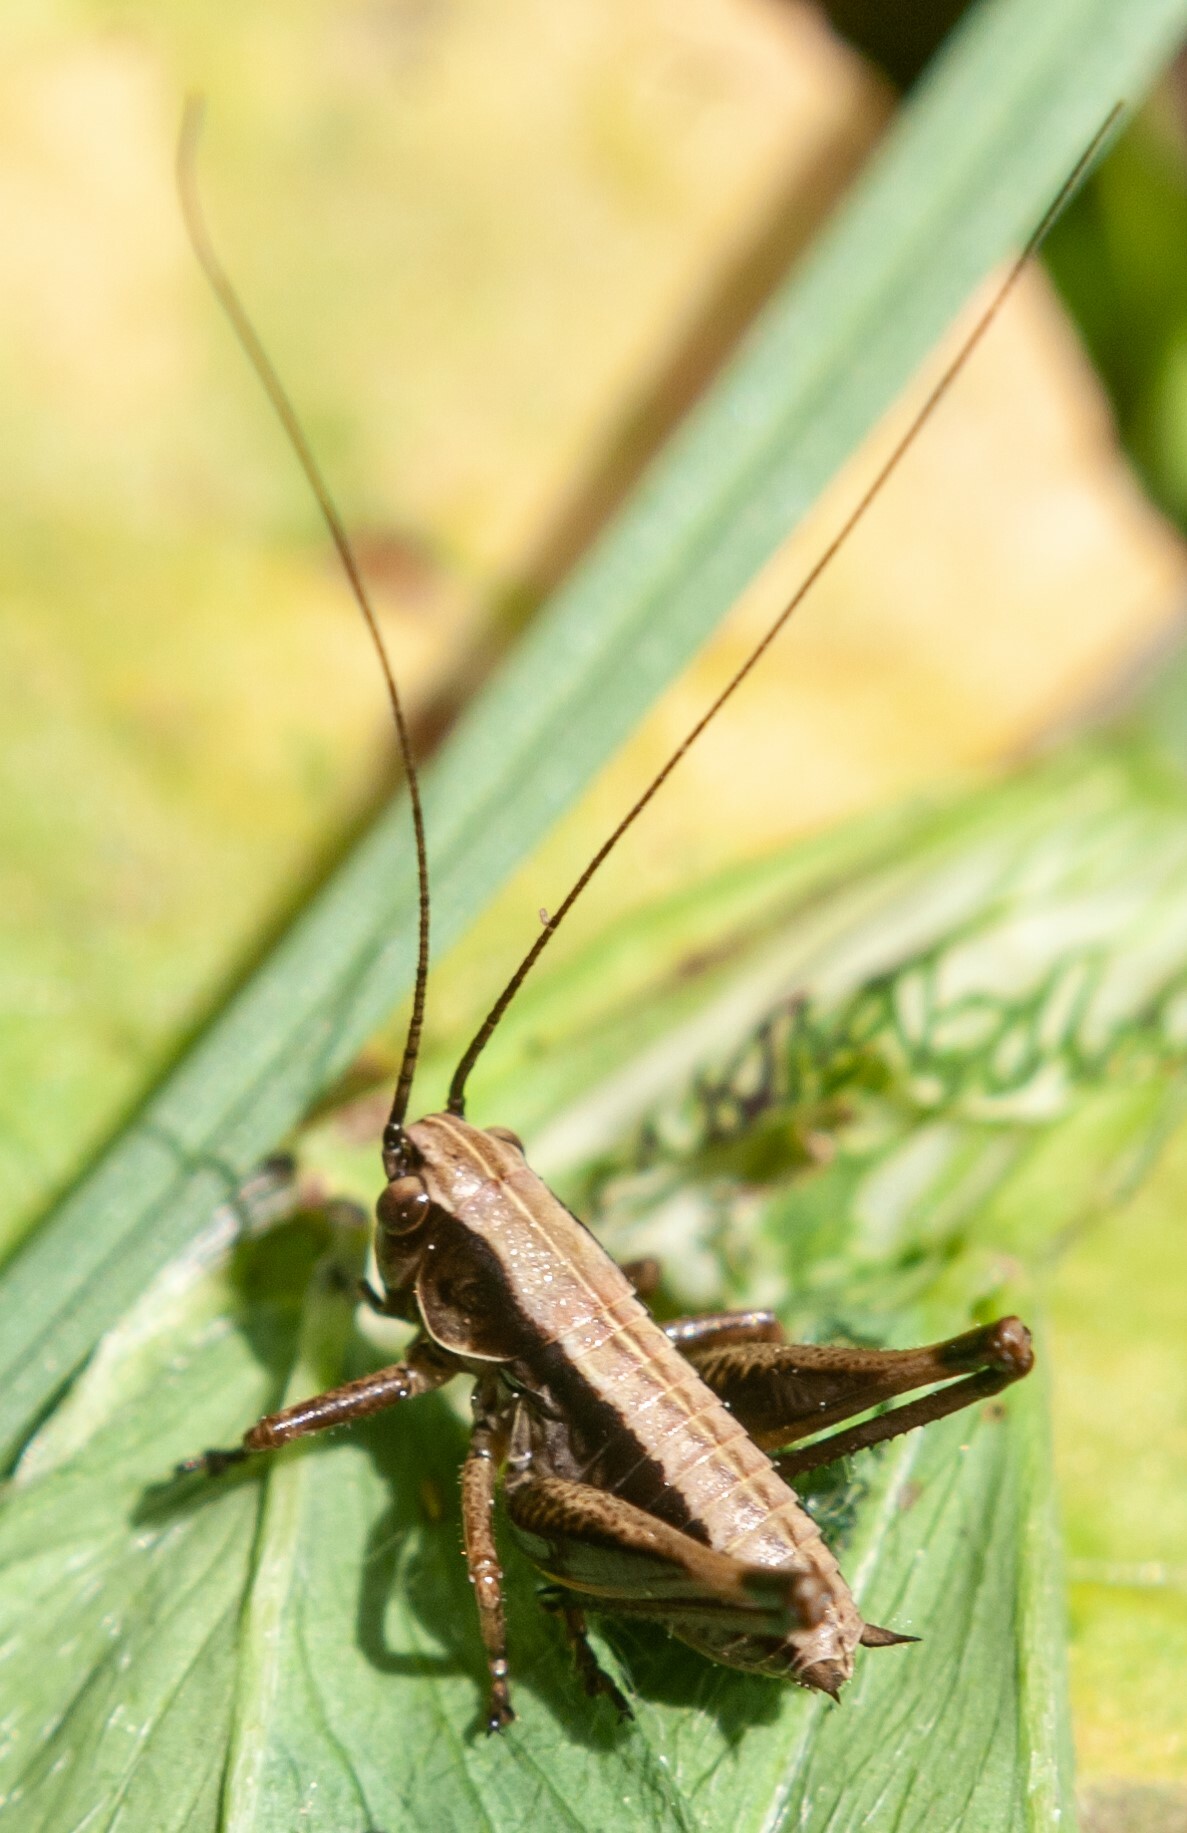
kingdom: Animalia
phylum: Arthropoda
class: Insecta
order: Orthoptera
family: Tettigoniidae
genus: Pholidoptera
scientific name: Pholidoptera griseoaptera
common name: Dark bush-cricket
